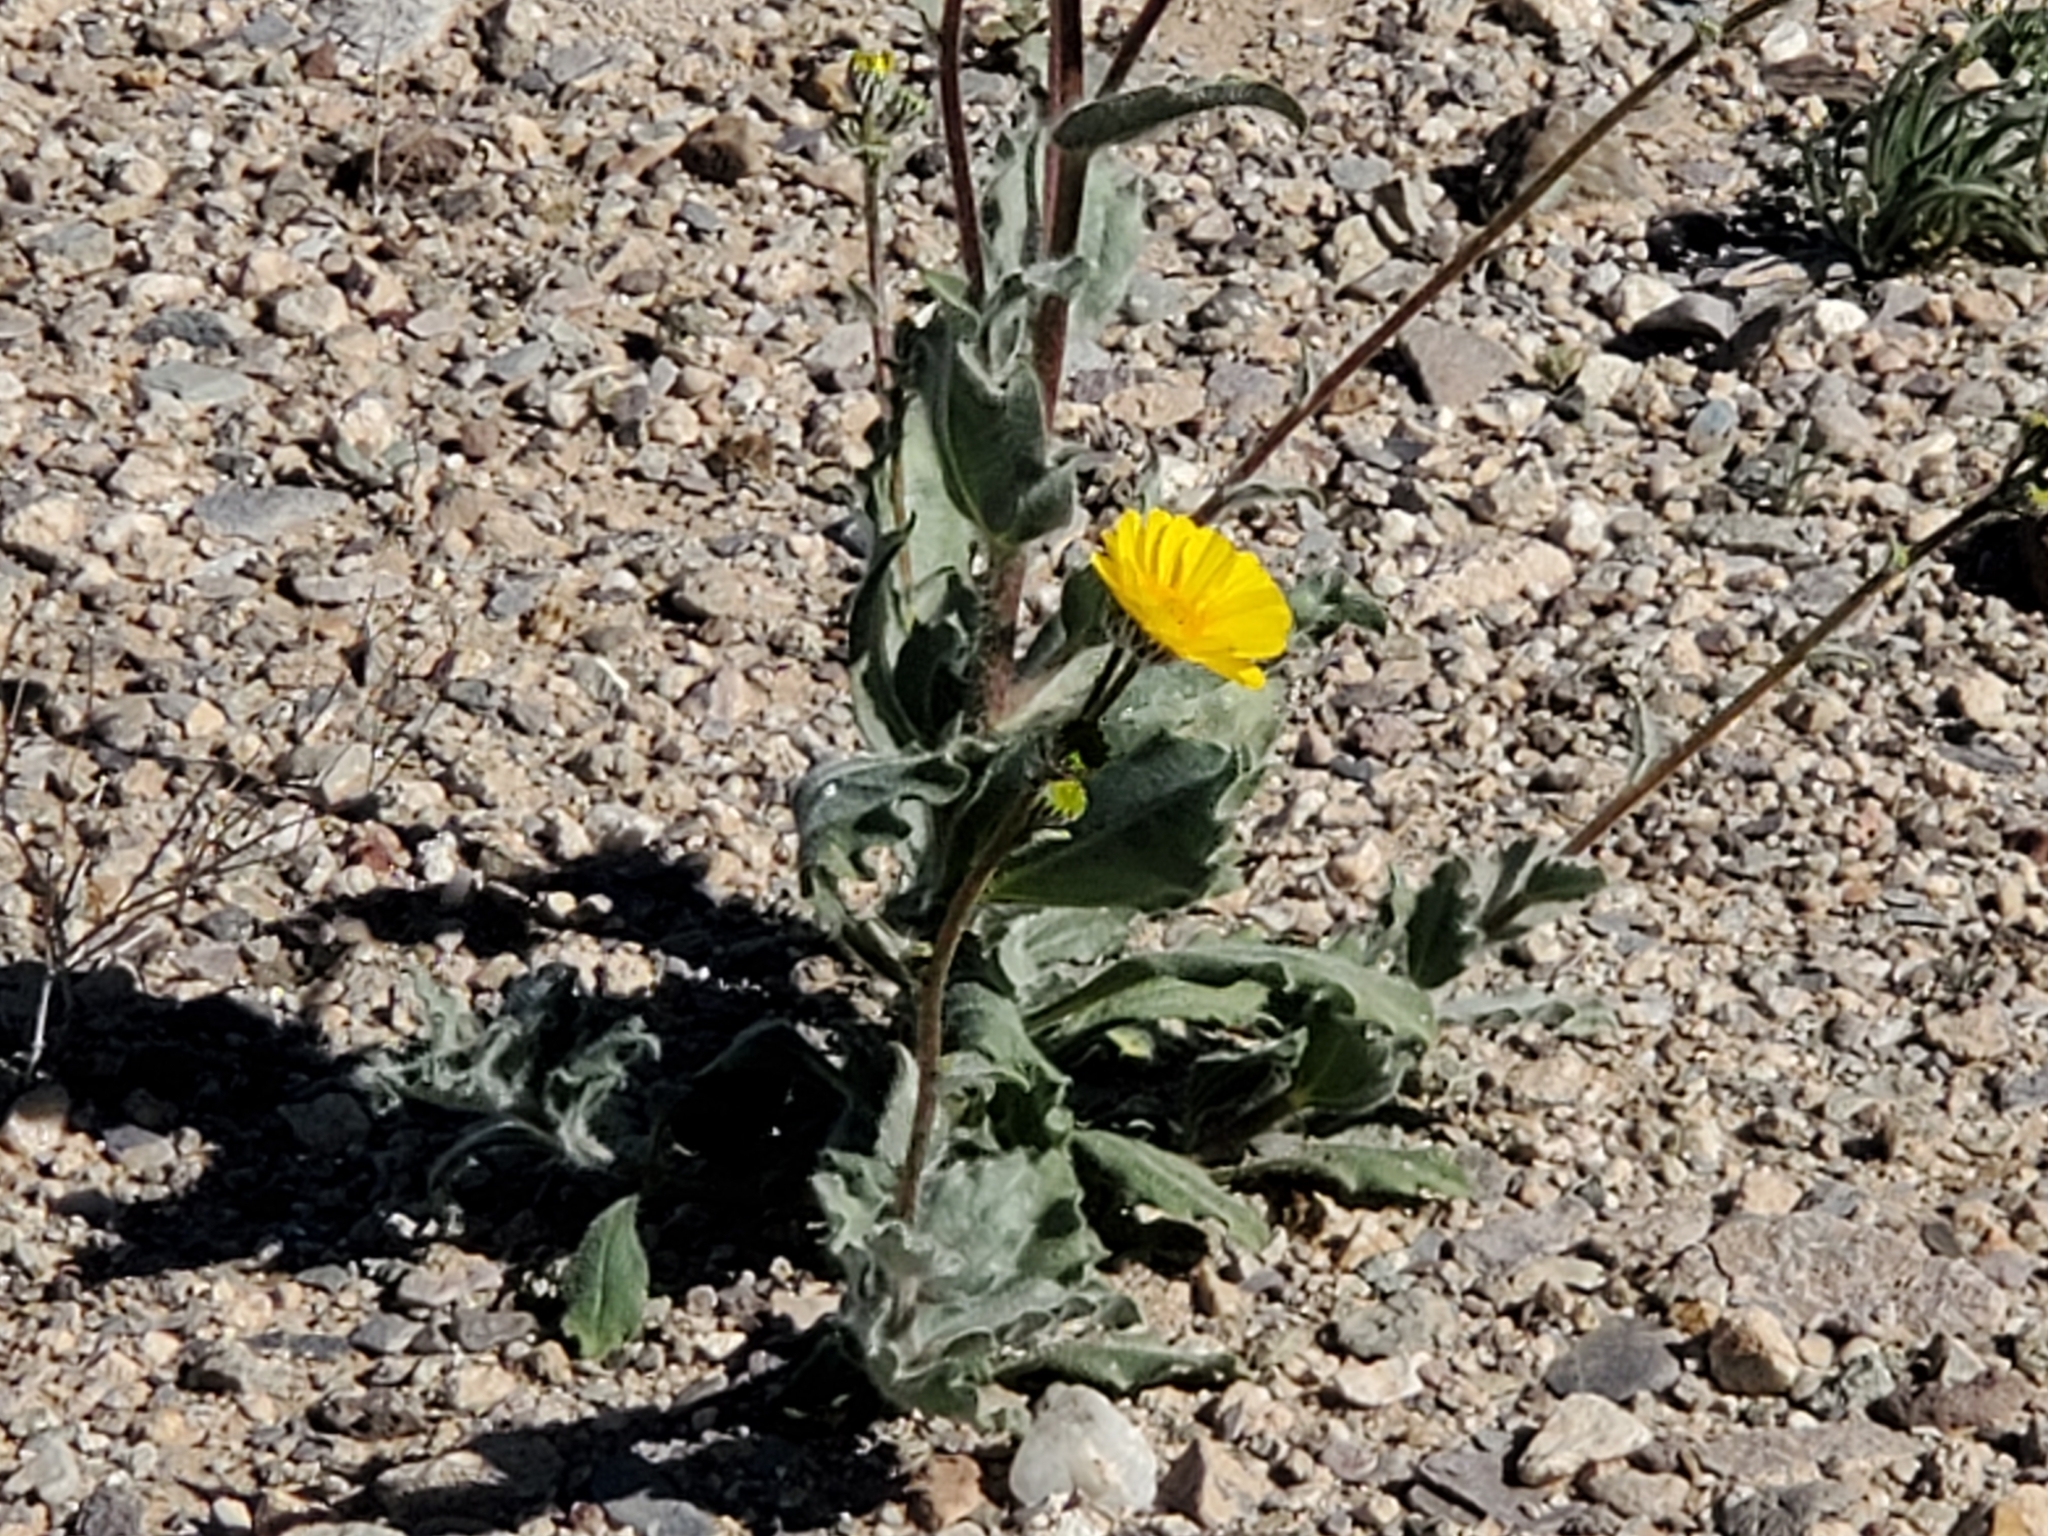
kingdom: Plantae
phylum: Tracheophyta
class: Magnoliopsida
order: Asterales
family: Asteraceae
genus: Geraea
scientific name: Geraea canescens
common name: Desert-gold
